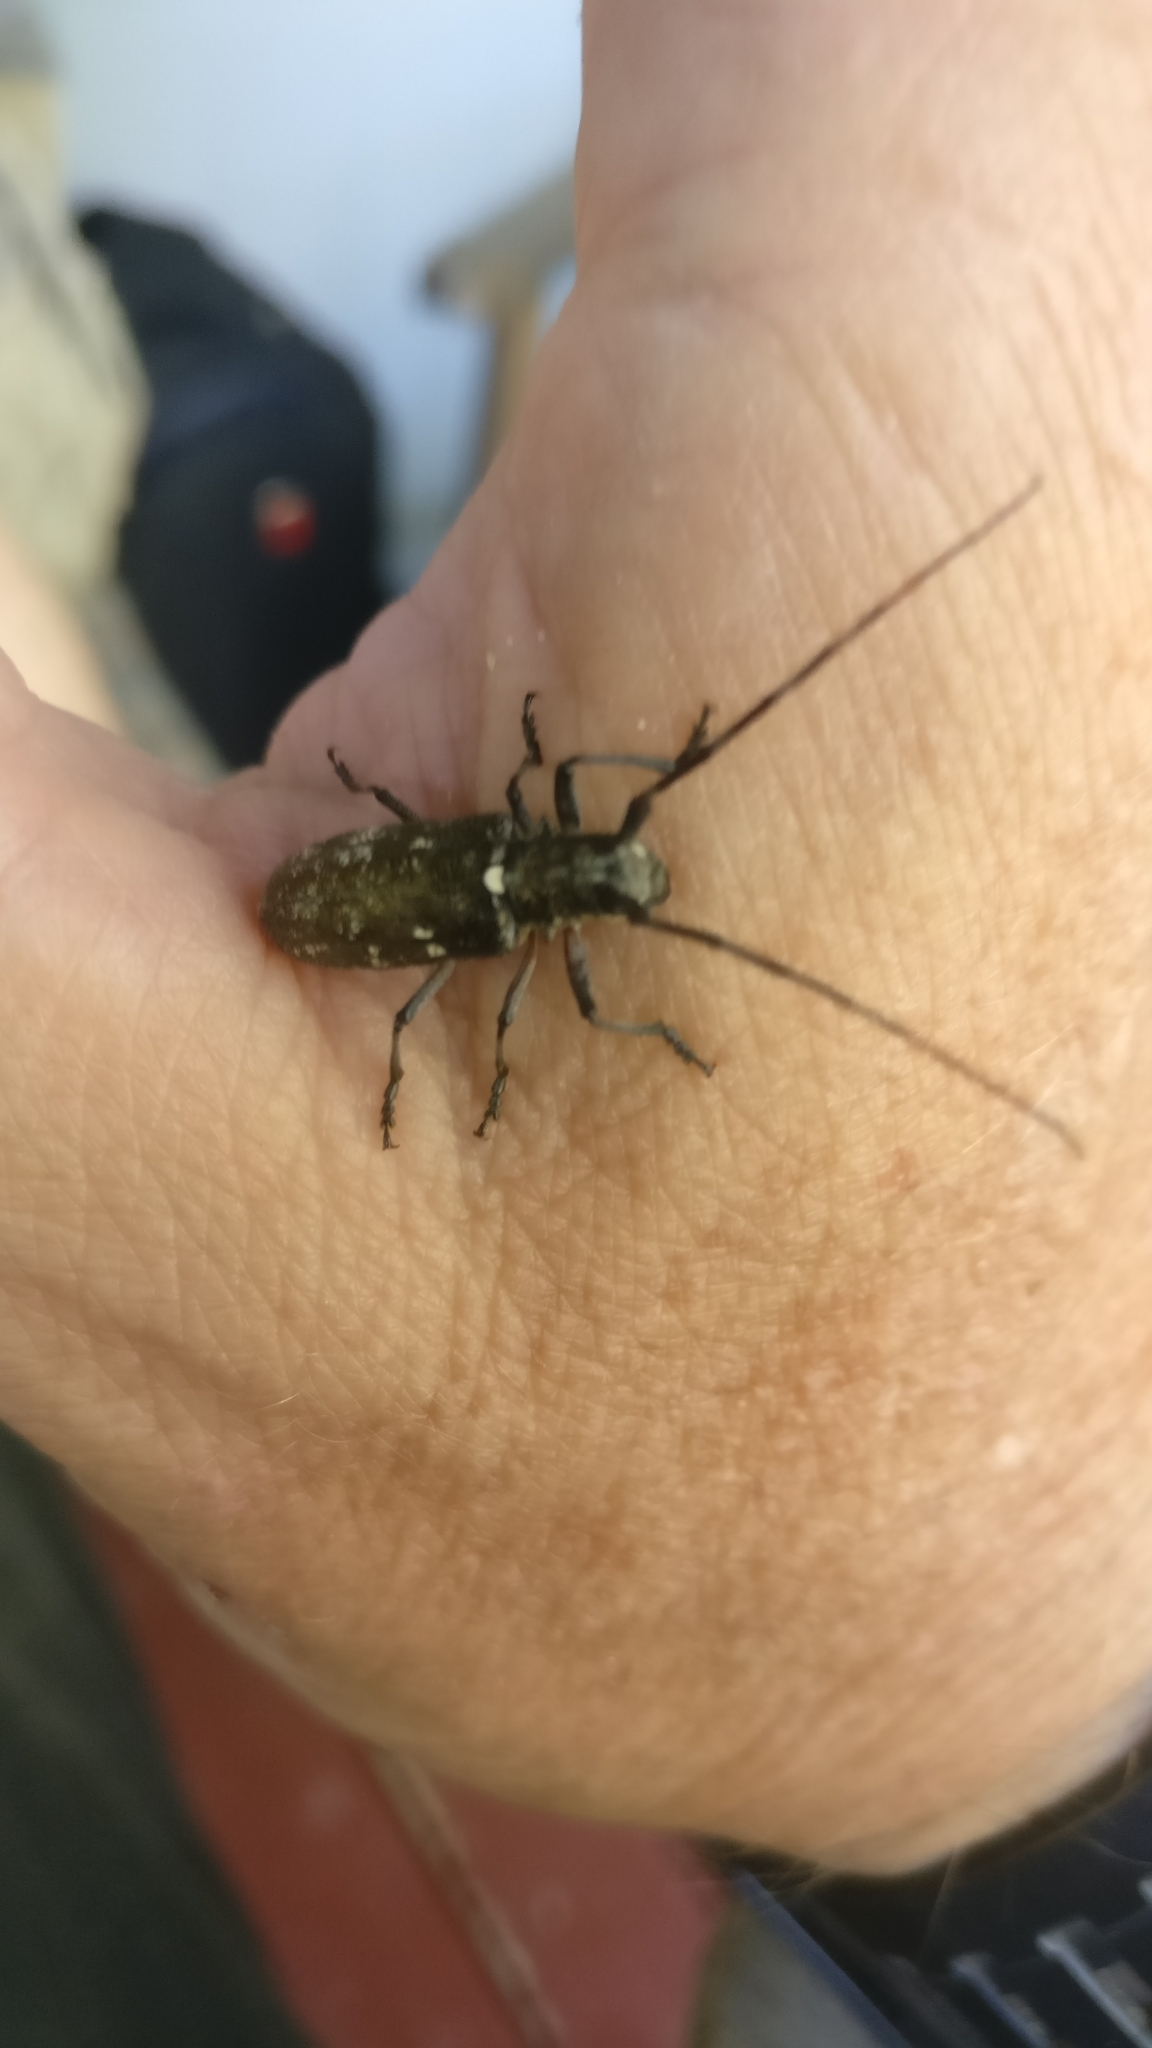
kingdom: Animalia
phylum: Arthropoda
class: Insecta
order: Coleoptera
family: Cerambycidae
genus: Monochamus
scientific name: Monochamus scutellatus
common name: White-spotted sawyer beetle
